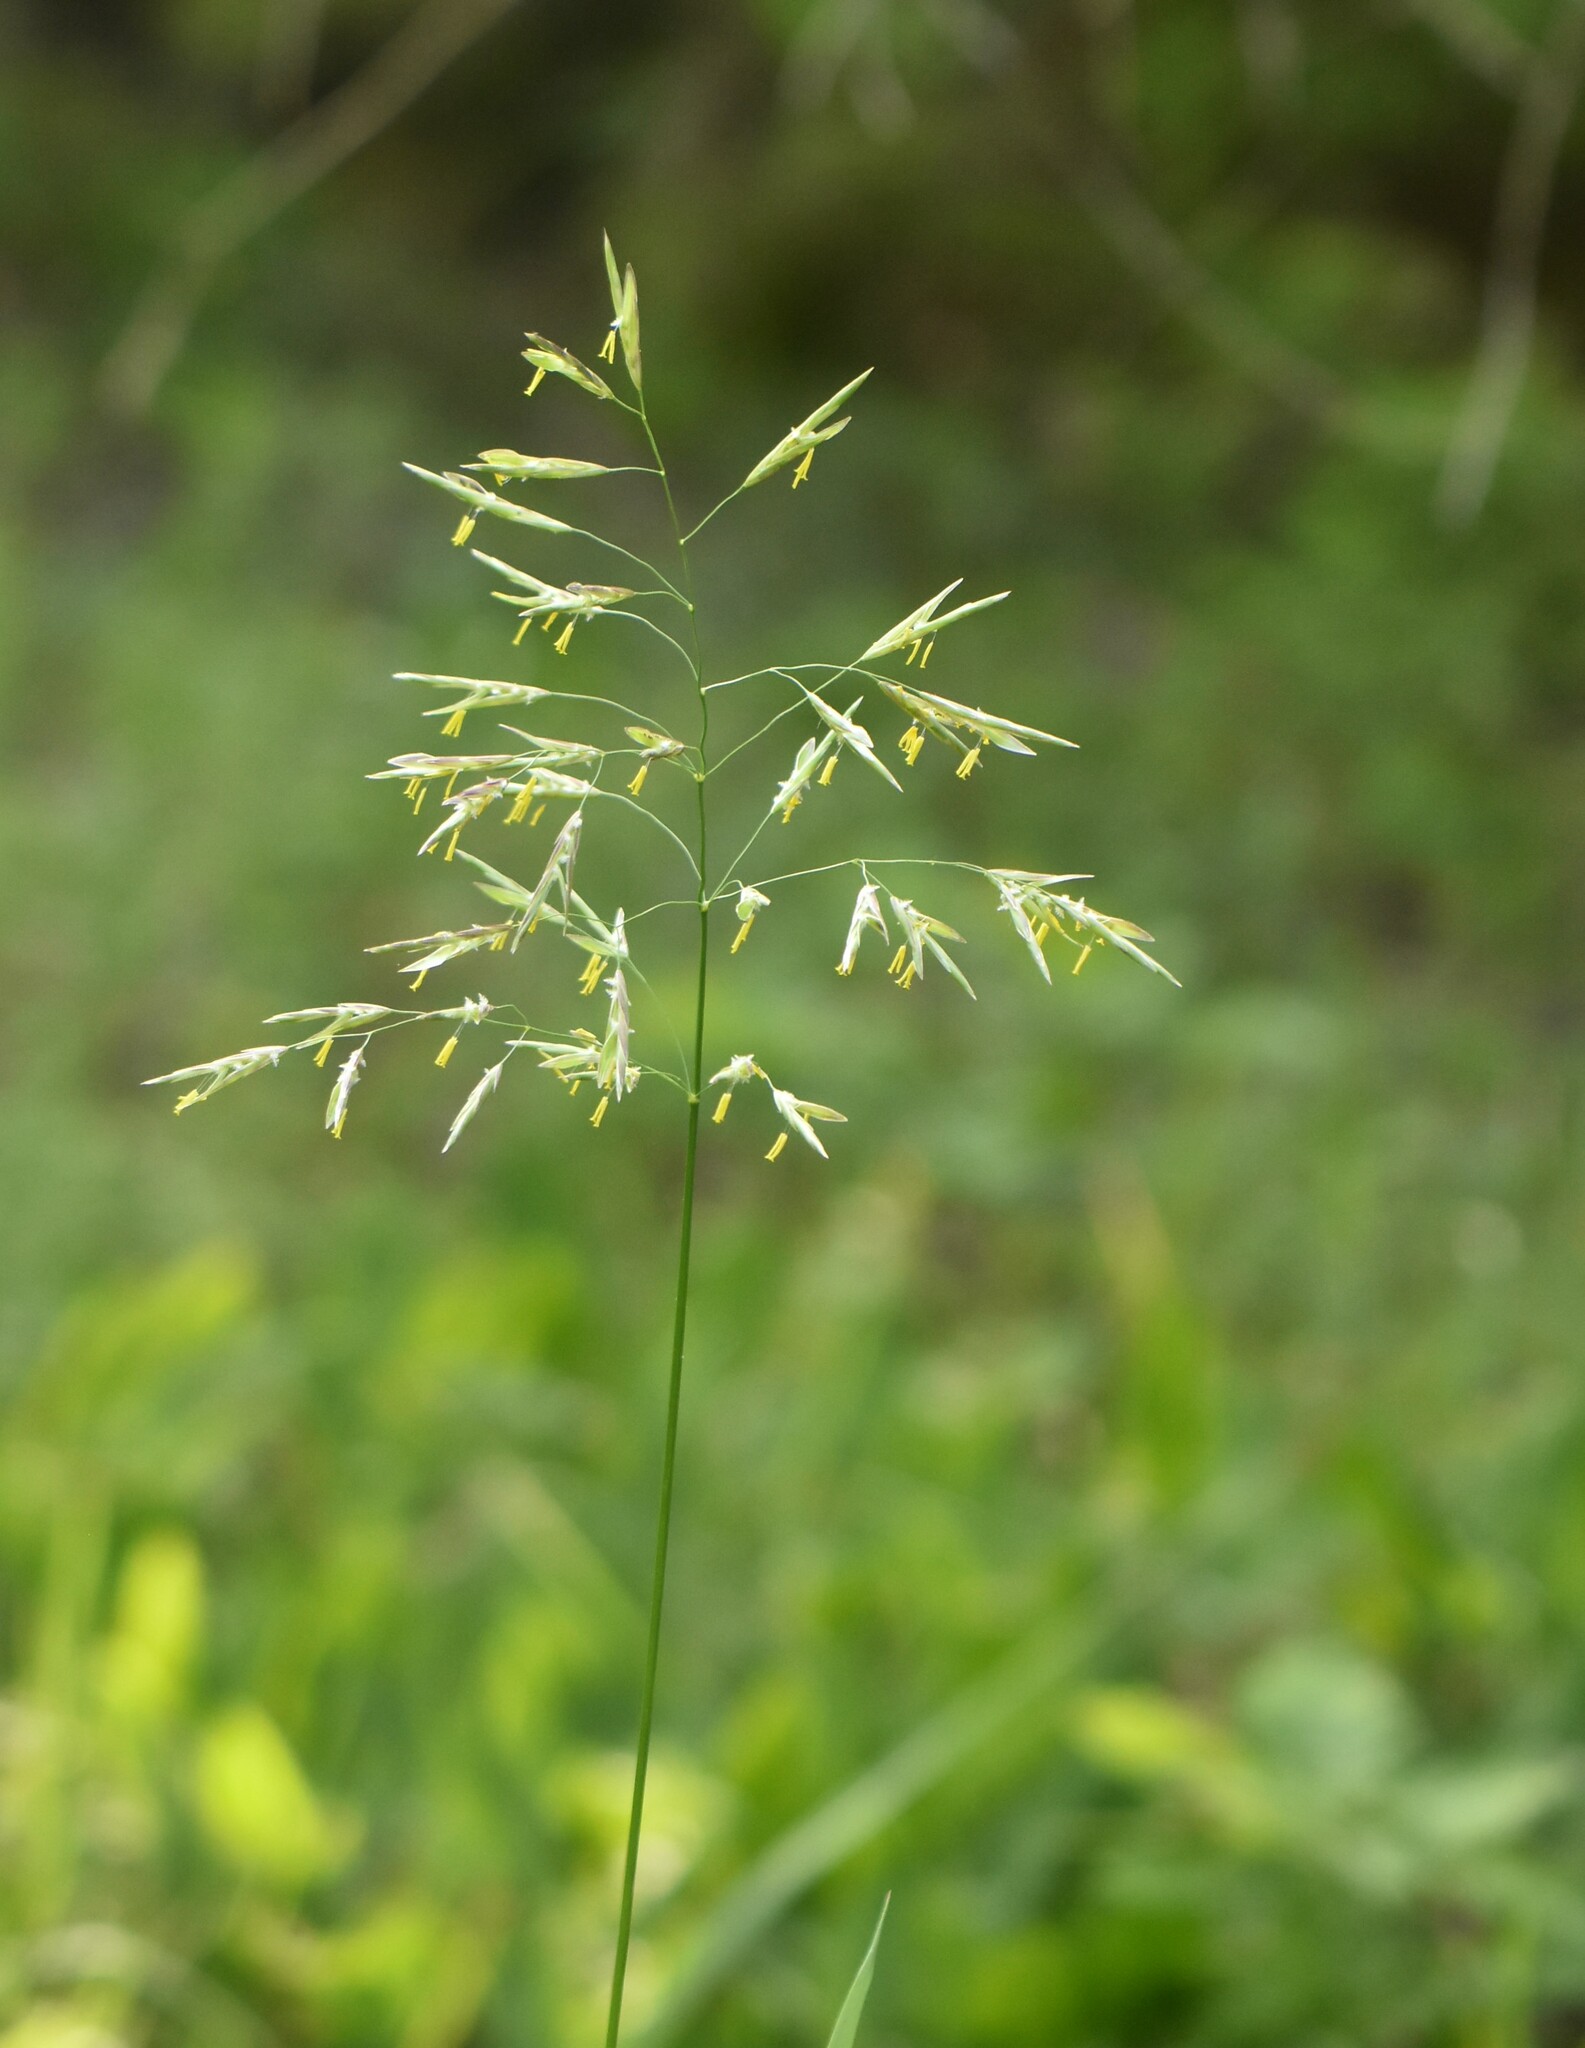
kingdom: Plantae
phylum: Tracheophyta
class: Liliopsida
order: Poales
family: Poaceae
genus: Bromus
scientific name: Bromus inermis
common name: Smooth brome
